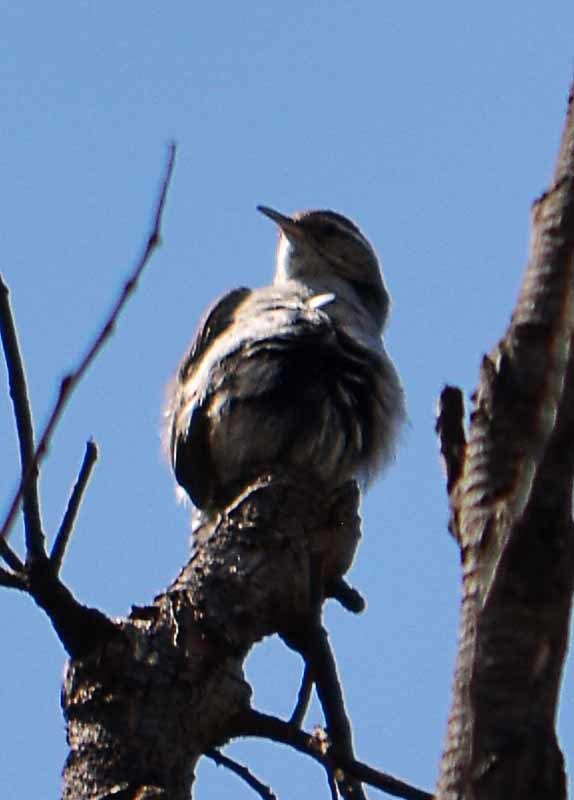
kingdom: Animalia
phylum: Chordata
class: Aves
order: Passeriformes
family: Troglodytidae
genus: Thryomanes
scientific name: Thryomanes bewickii
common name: Bewick's wren
